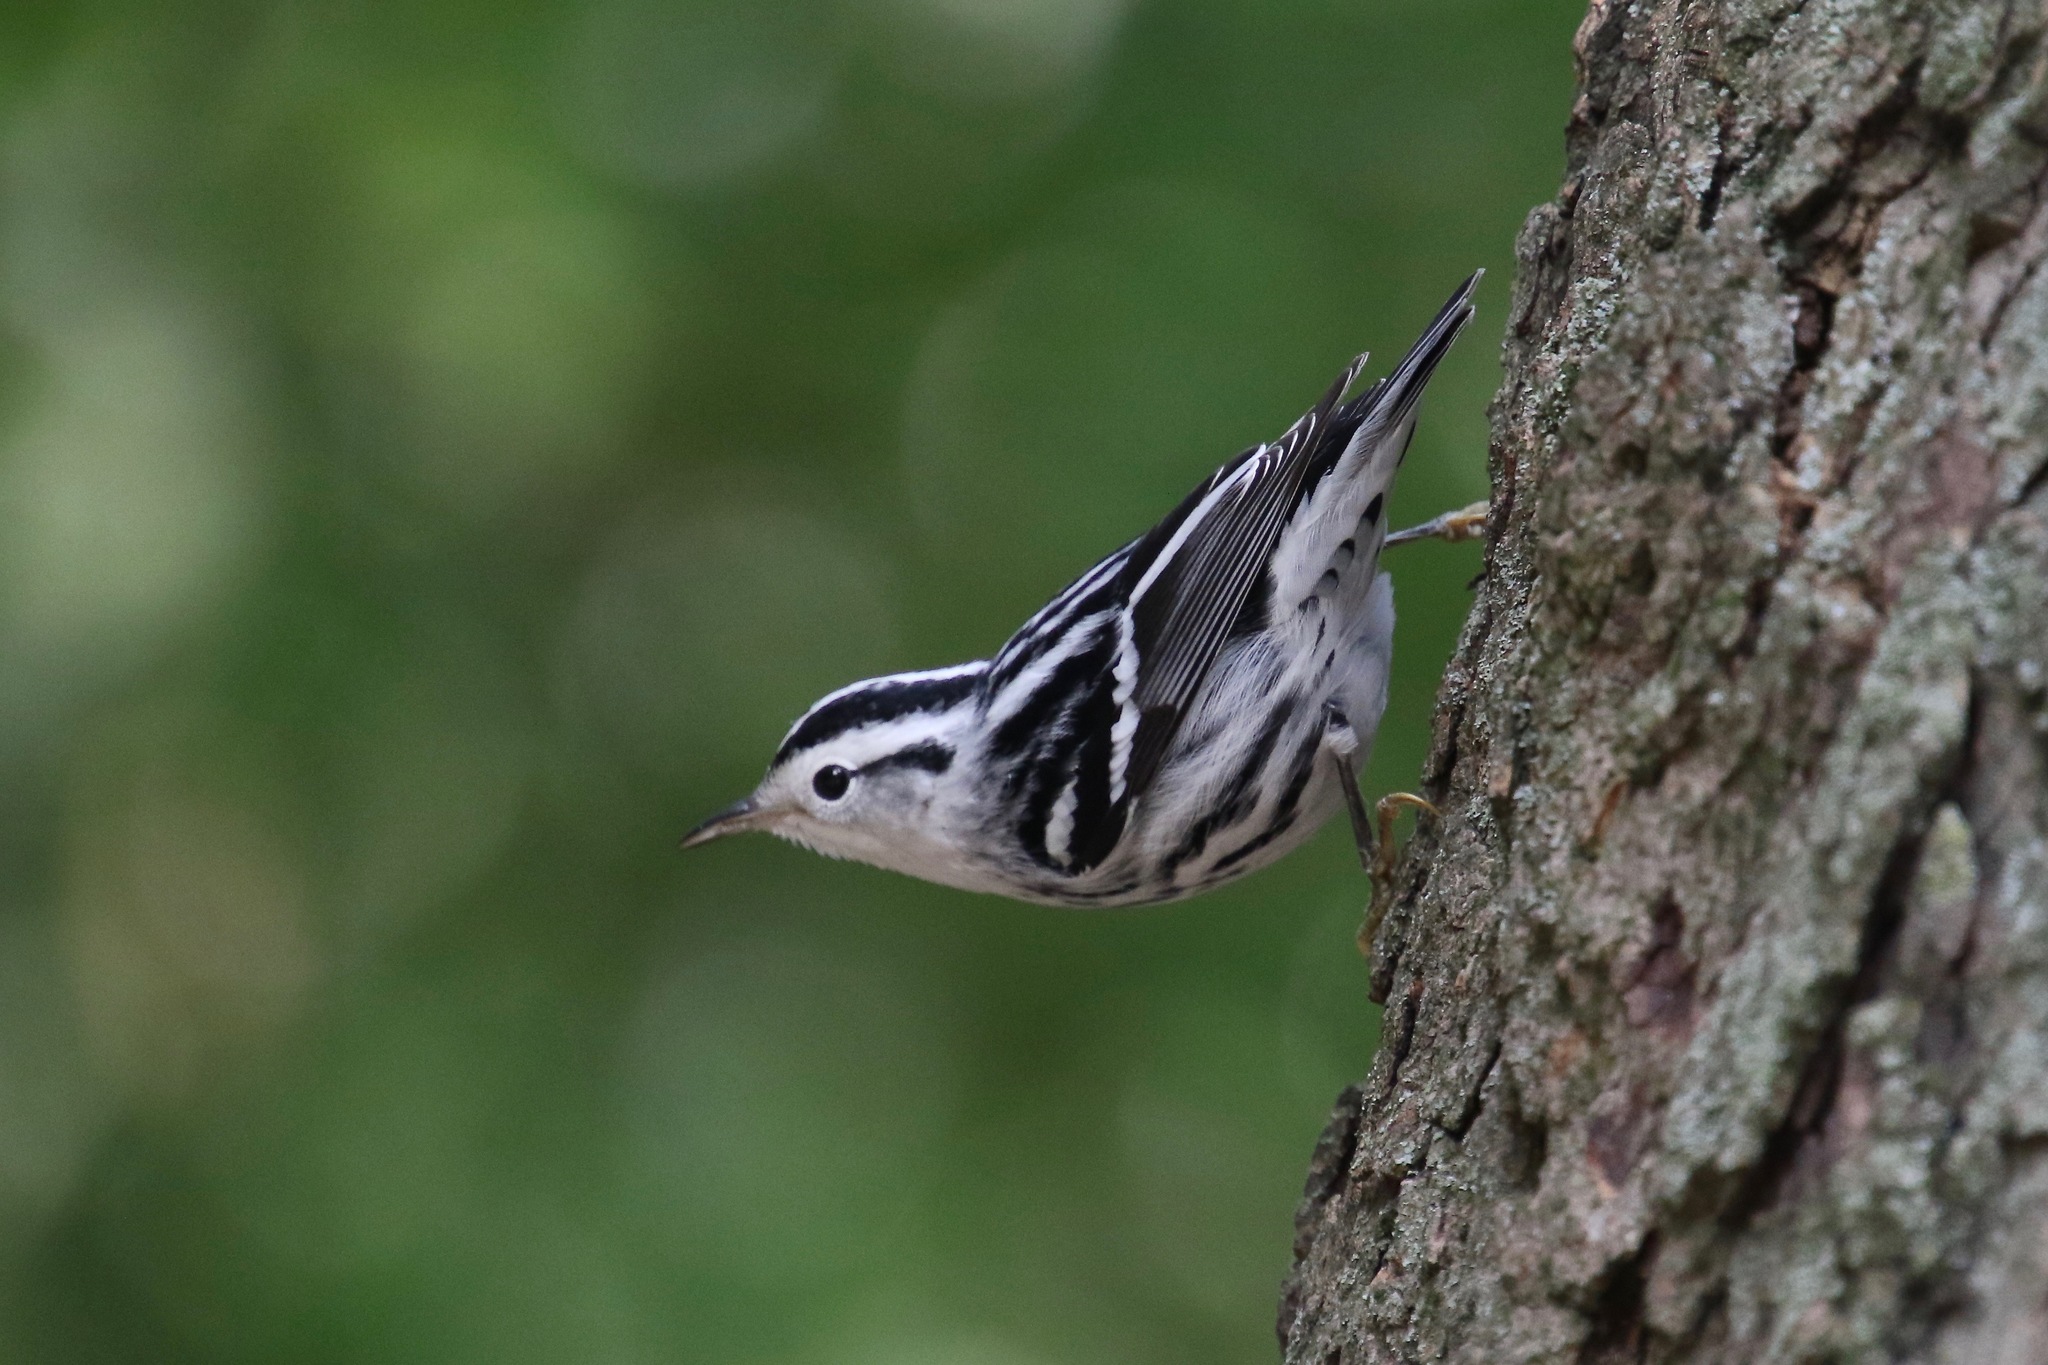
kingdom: Animalia
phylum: Chordata
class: Aves
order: Passeriformes
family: Parulidae
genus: Mniotilta
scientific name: Mniotilta varia
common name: Black-and-white warbler
